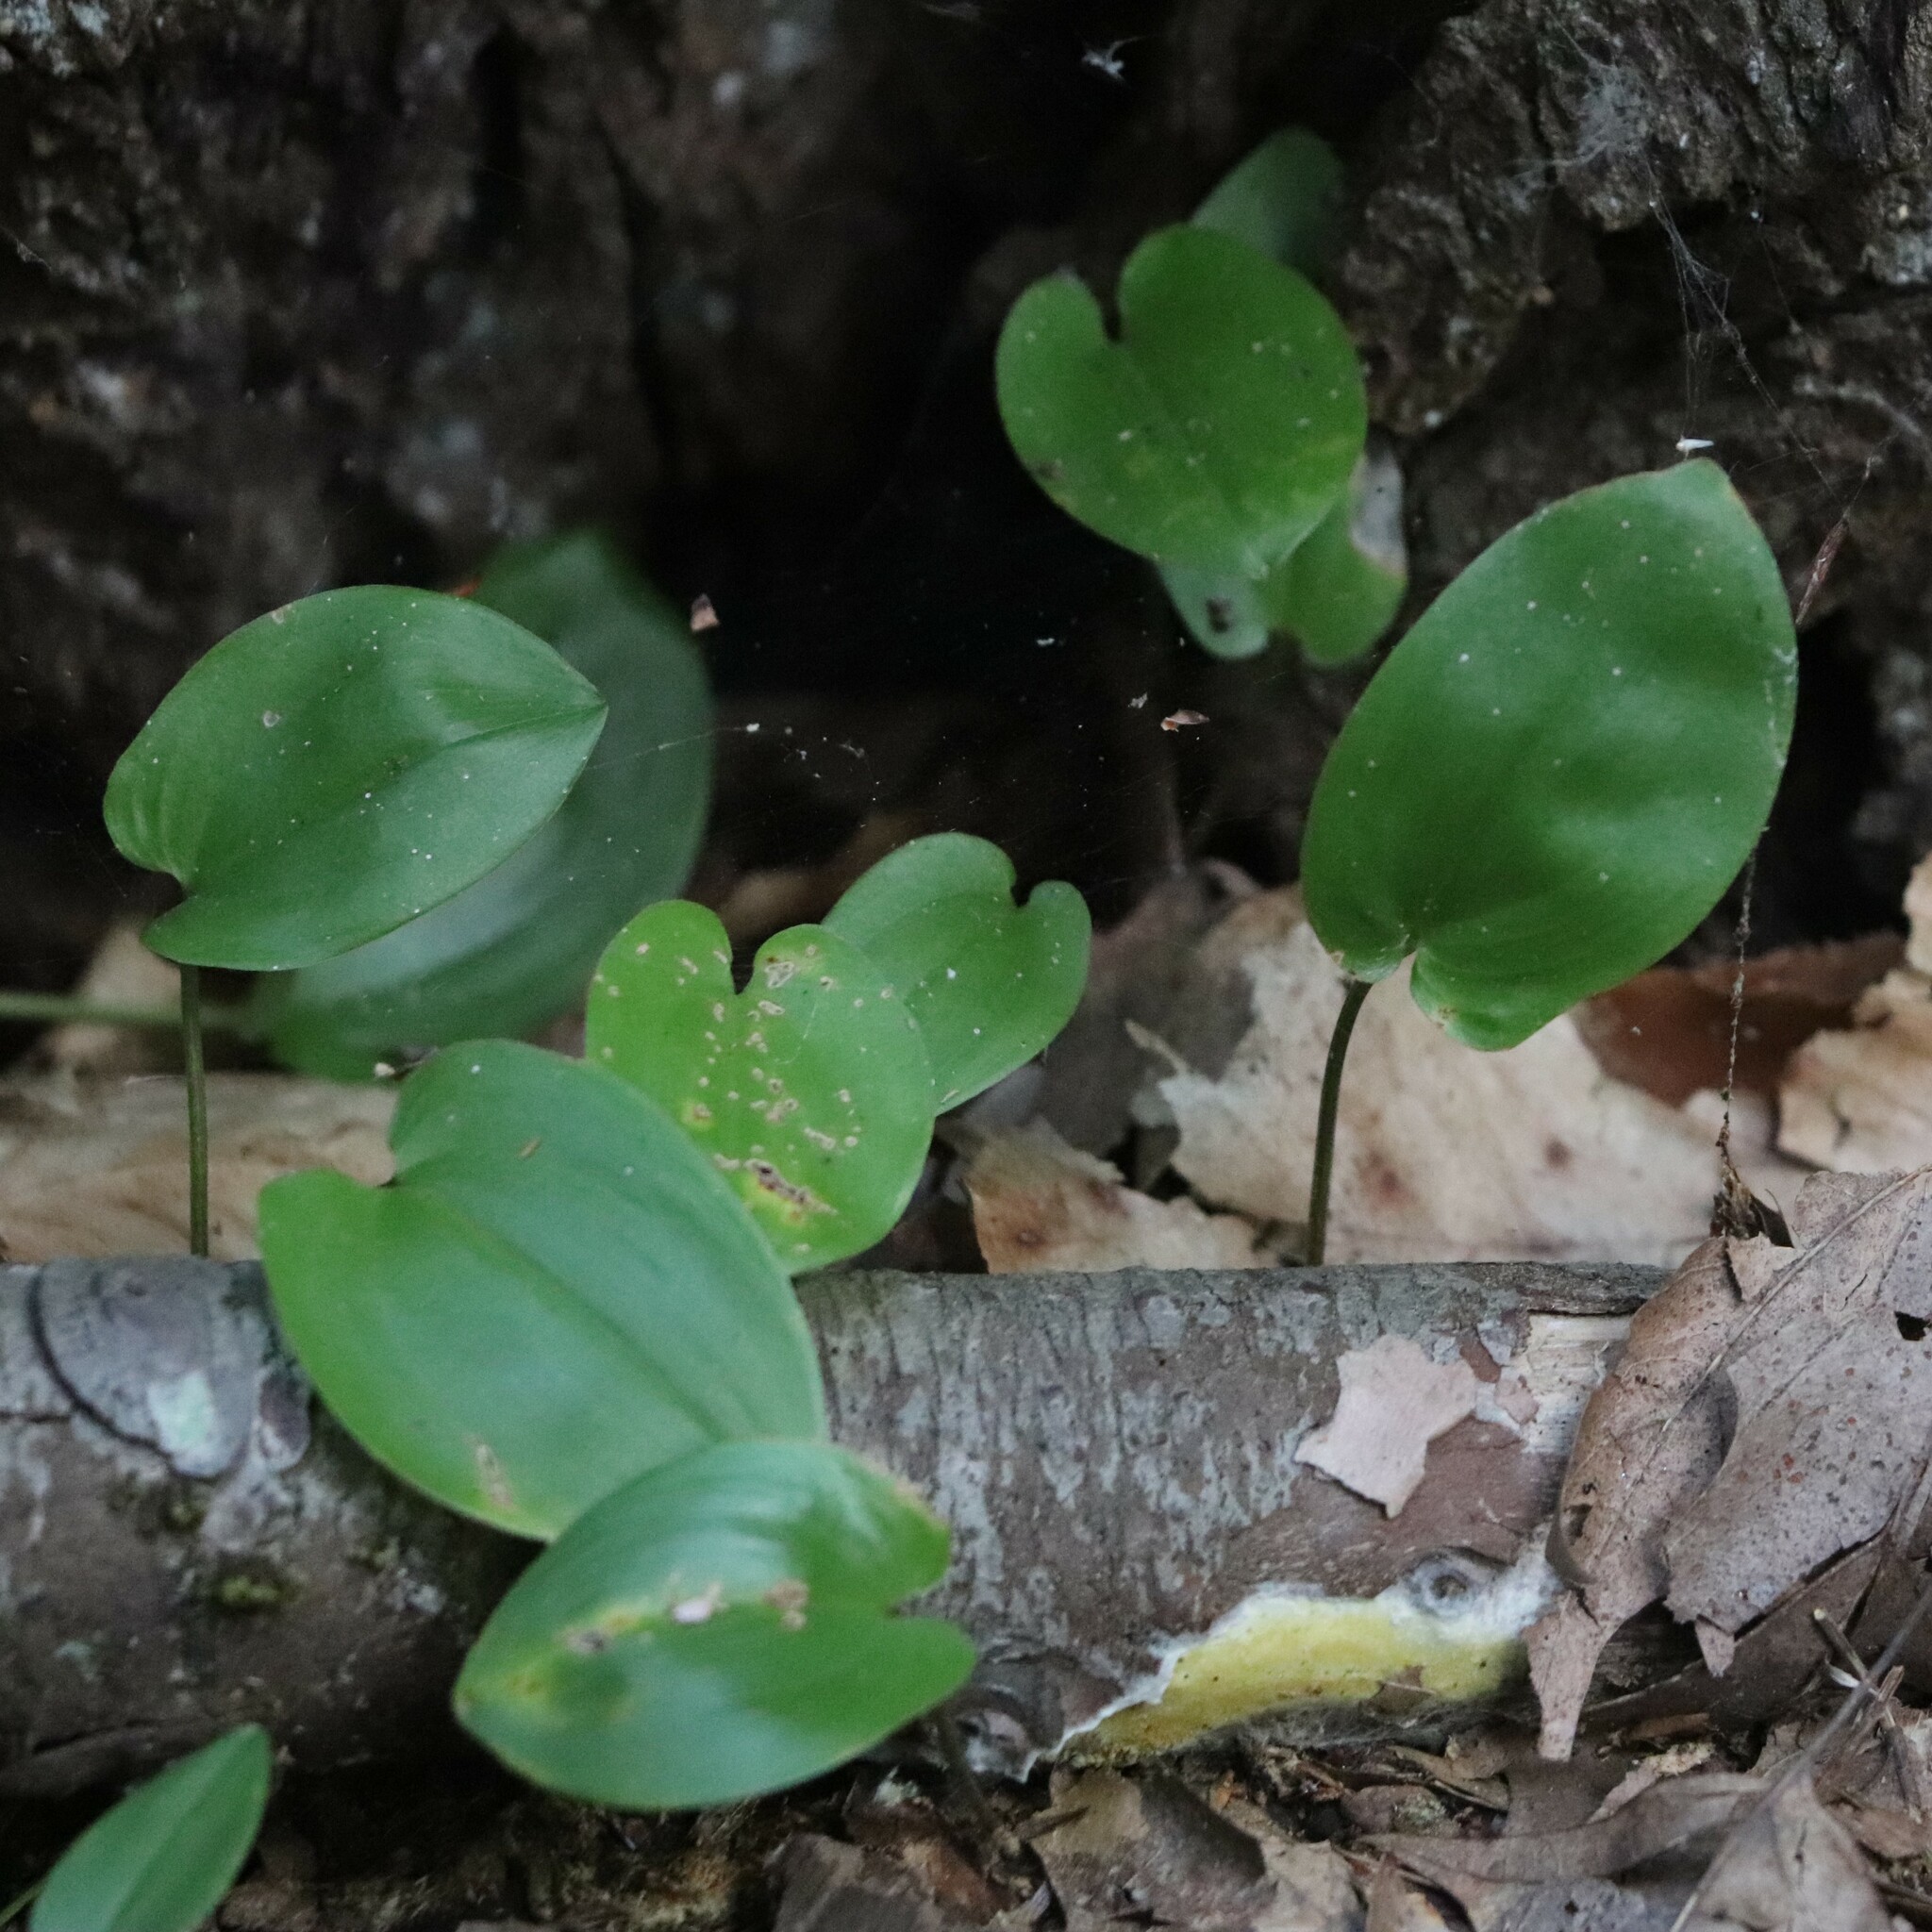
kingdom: Plantae
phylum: Tracheophyta
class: Liliopsida
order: Asparagales
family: Asparagaceae
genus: Maianthemum
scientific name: Maianthemum canadense
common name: False lily-of-the-valley
